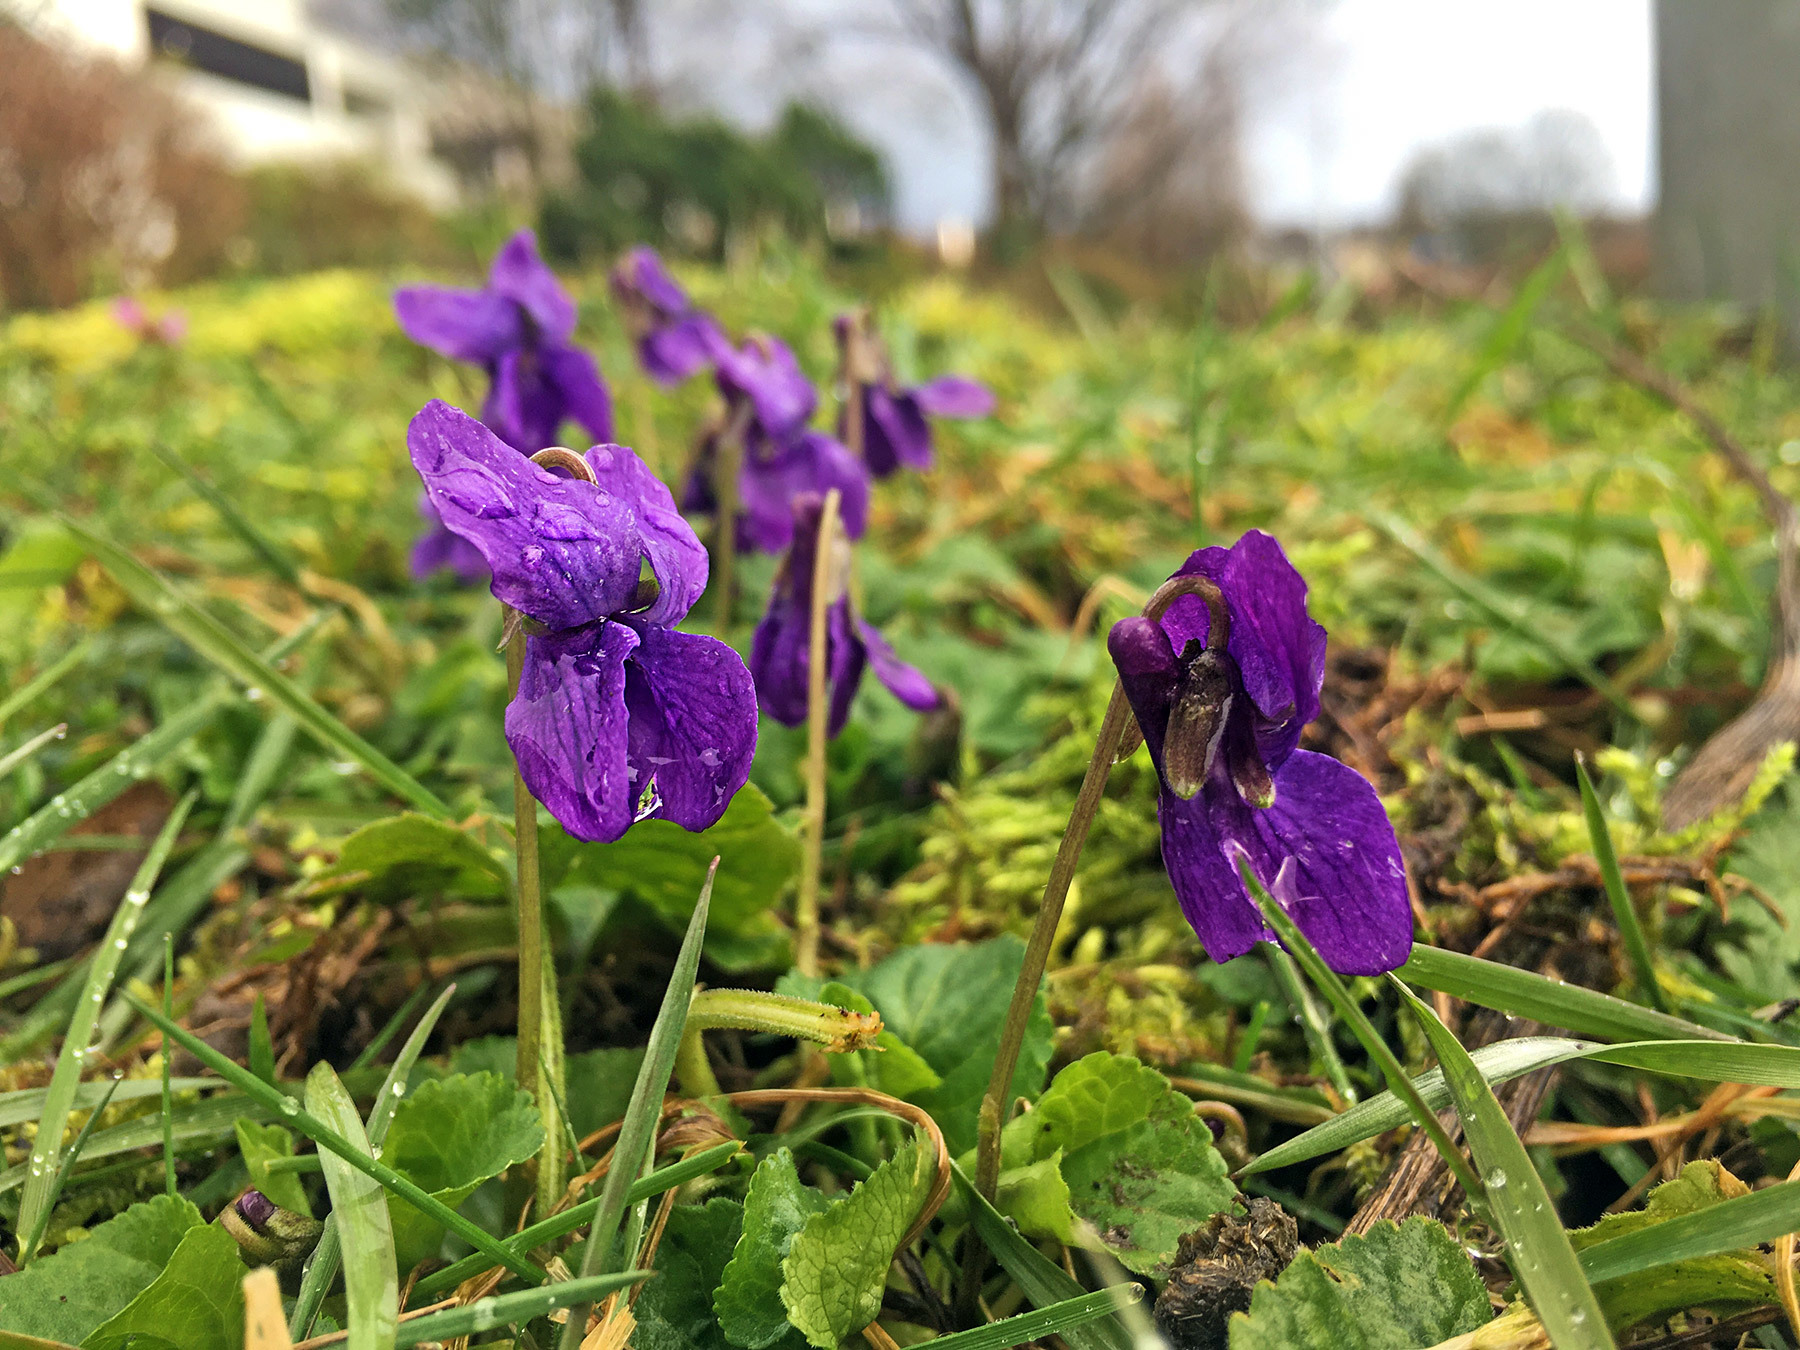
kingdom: Plantae
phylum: Tracheophyta
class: Magnoliopsida
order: Malpighiales
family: Violaceae
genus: Viola
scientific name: Viola odorata
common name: Sweet violet
